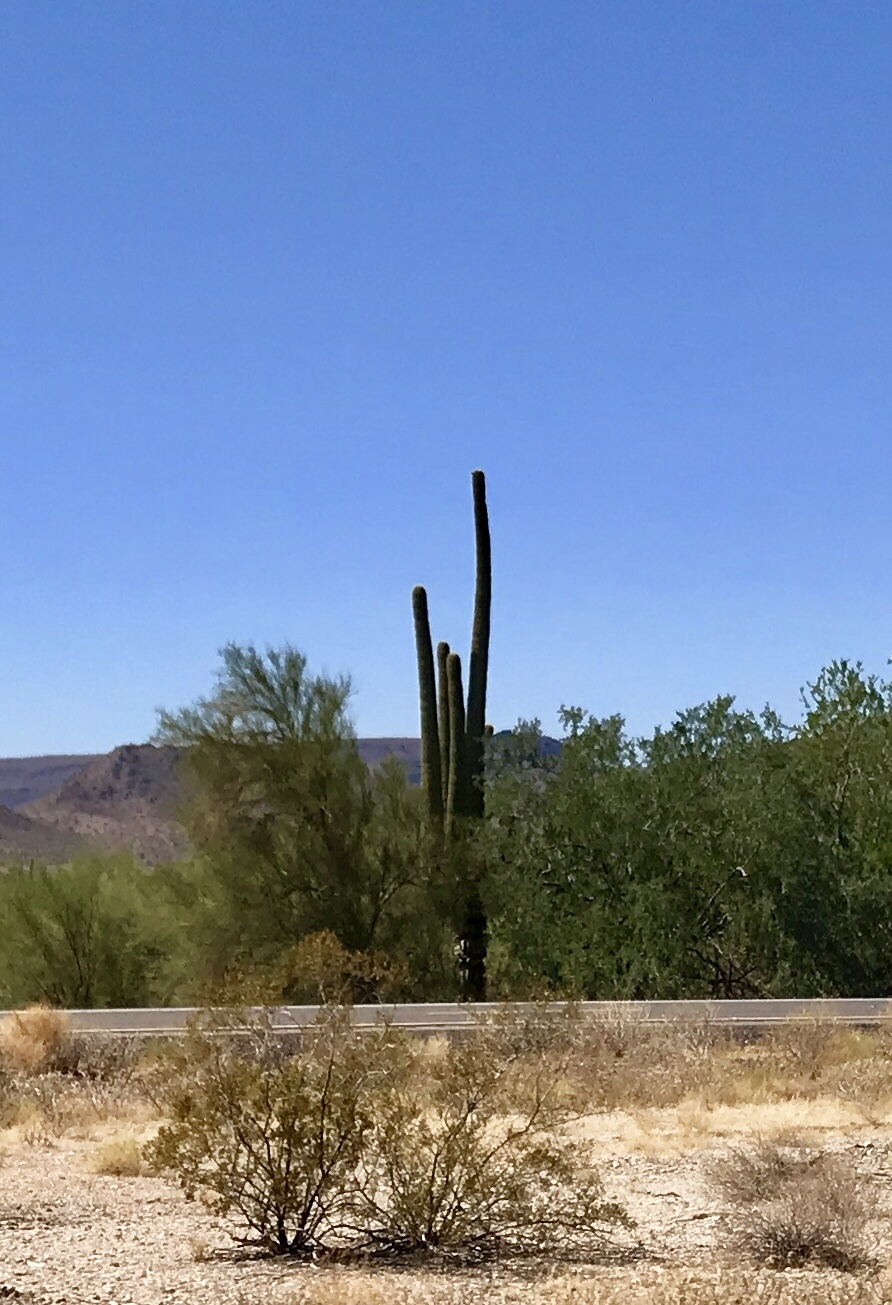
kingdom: Plantae
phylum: Tracheophyta
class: Magnoliopsida
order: Caryophyllales
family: Cactaceae
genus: Carnegiea
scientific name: Carnegiea gigantea
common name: Saguaro
